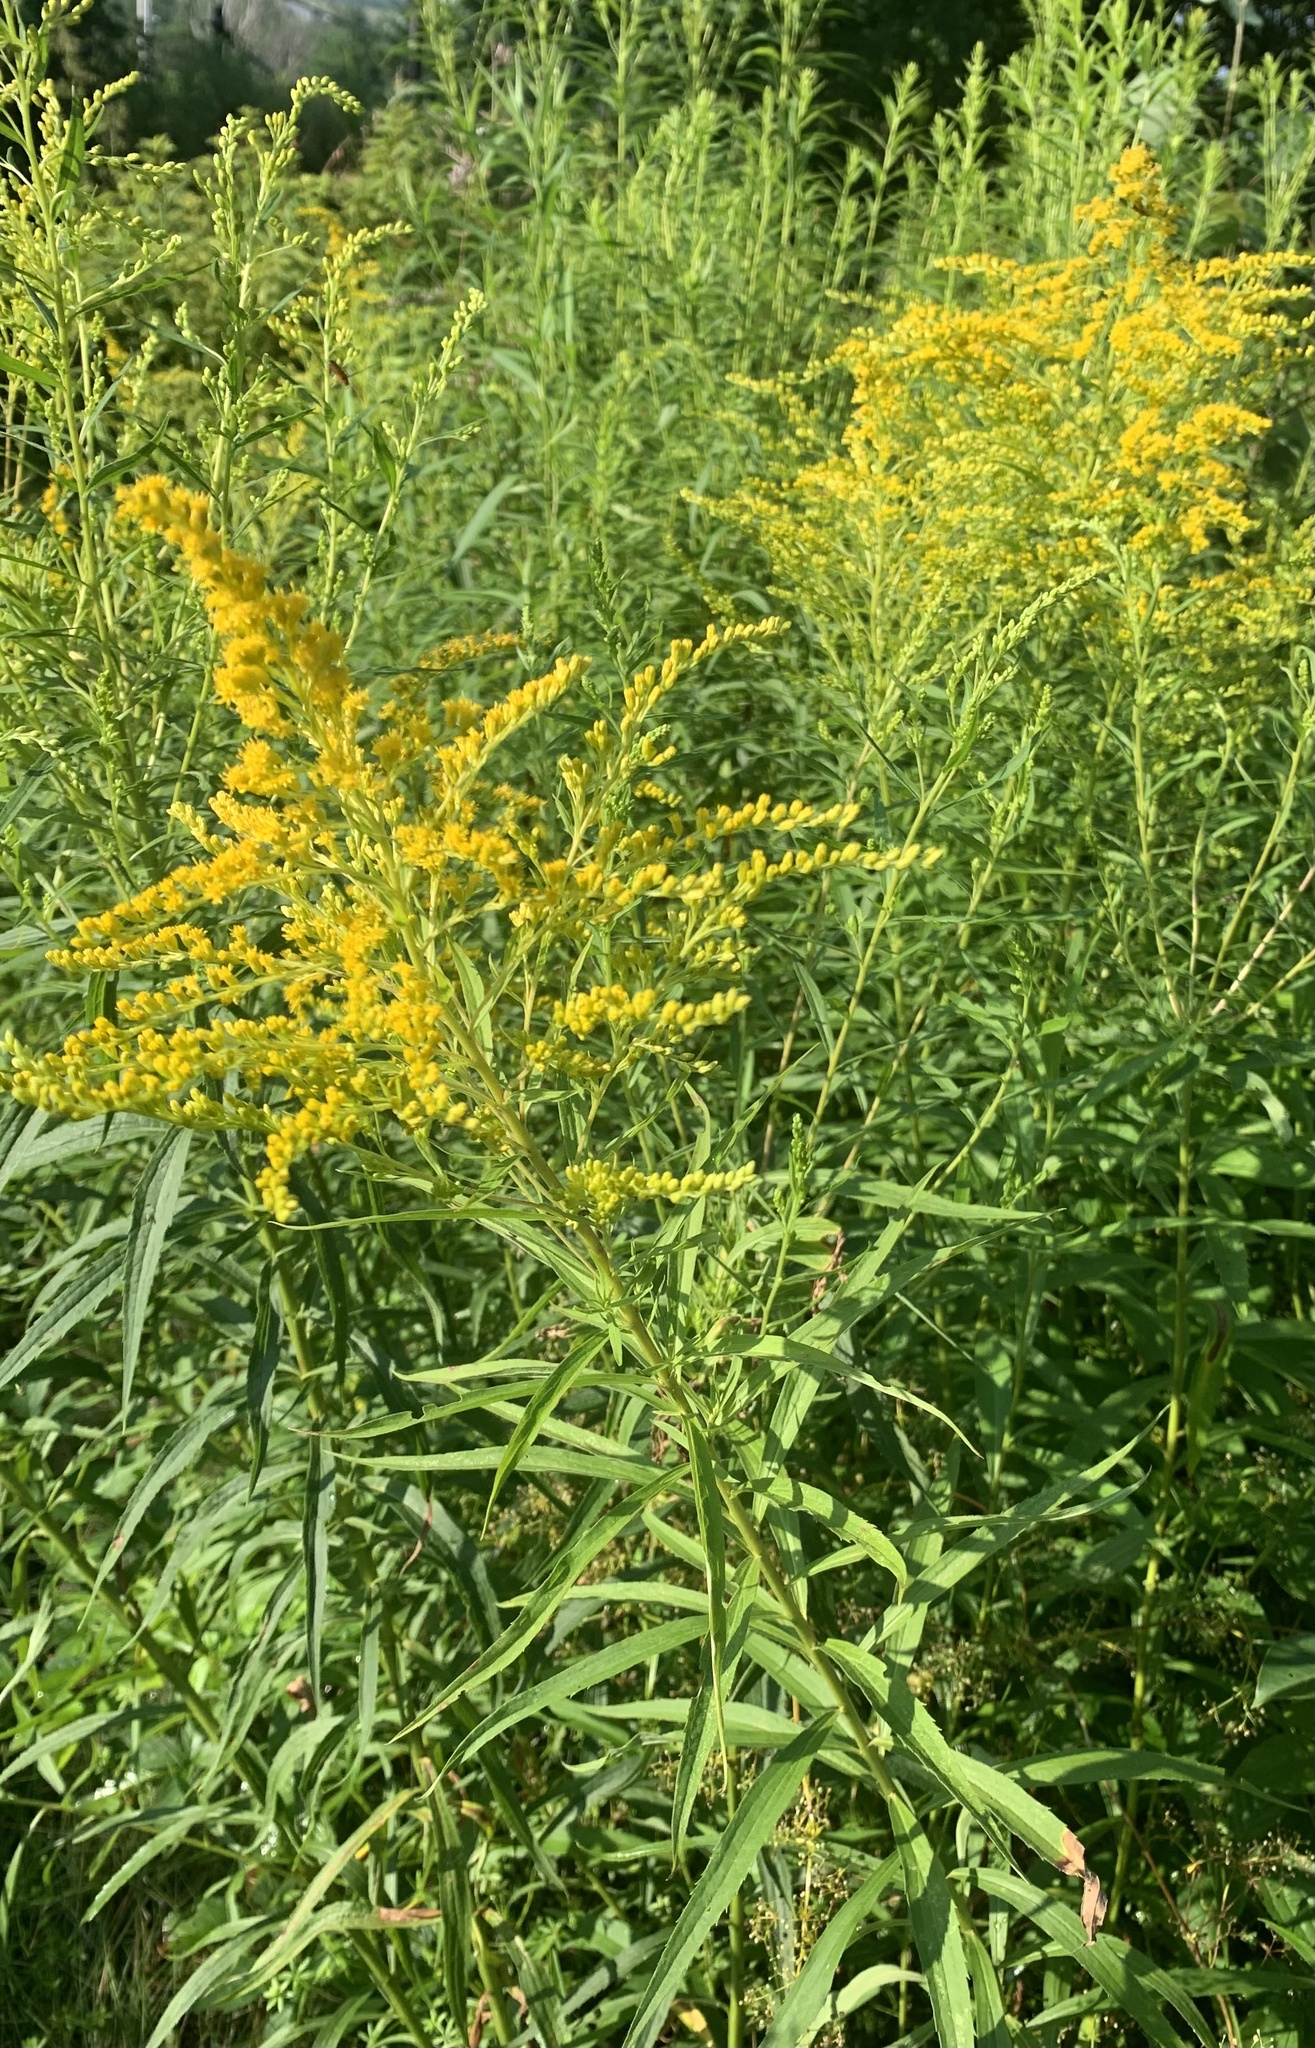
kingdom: Plantae
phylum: Tracheophyta
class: Magnoliopsida
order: Asterales
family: Asteraceae
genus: Solidago
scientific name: Solidago canadensis
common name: Canada goldenrod
